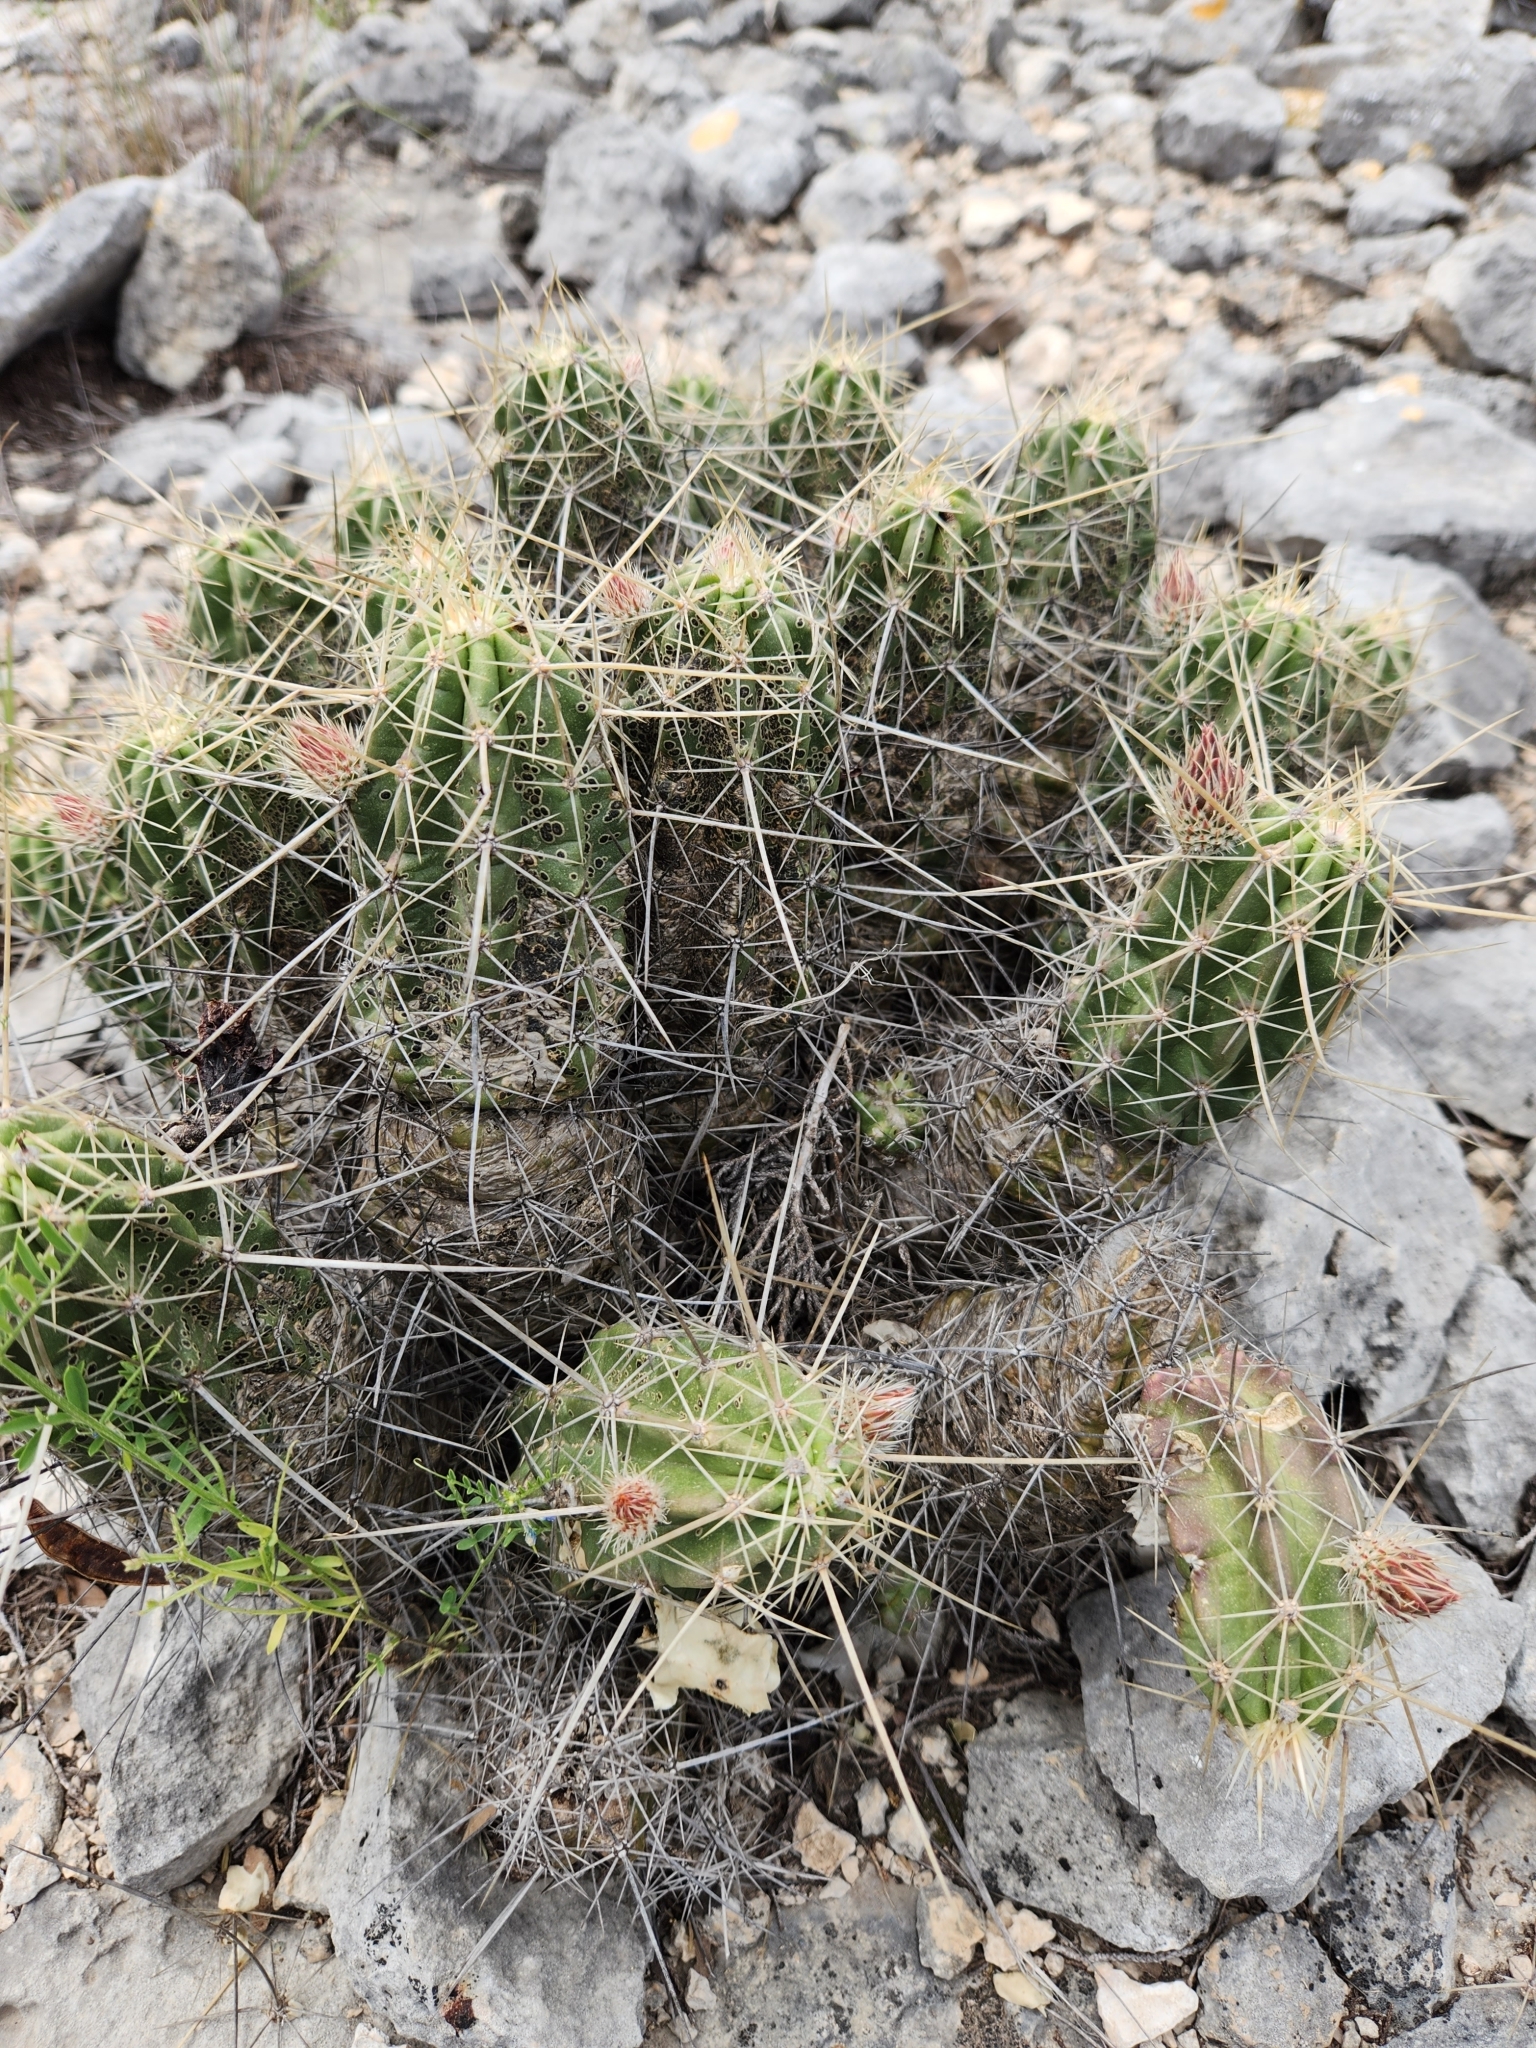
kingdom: Plantae
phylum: Tracheophyta
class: Magnoliopsida
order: Caryophyllales
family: Cactaceae
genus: Echinocereus
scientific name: Echinocereus enneacanthus
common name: Pitaya
